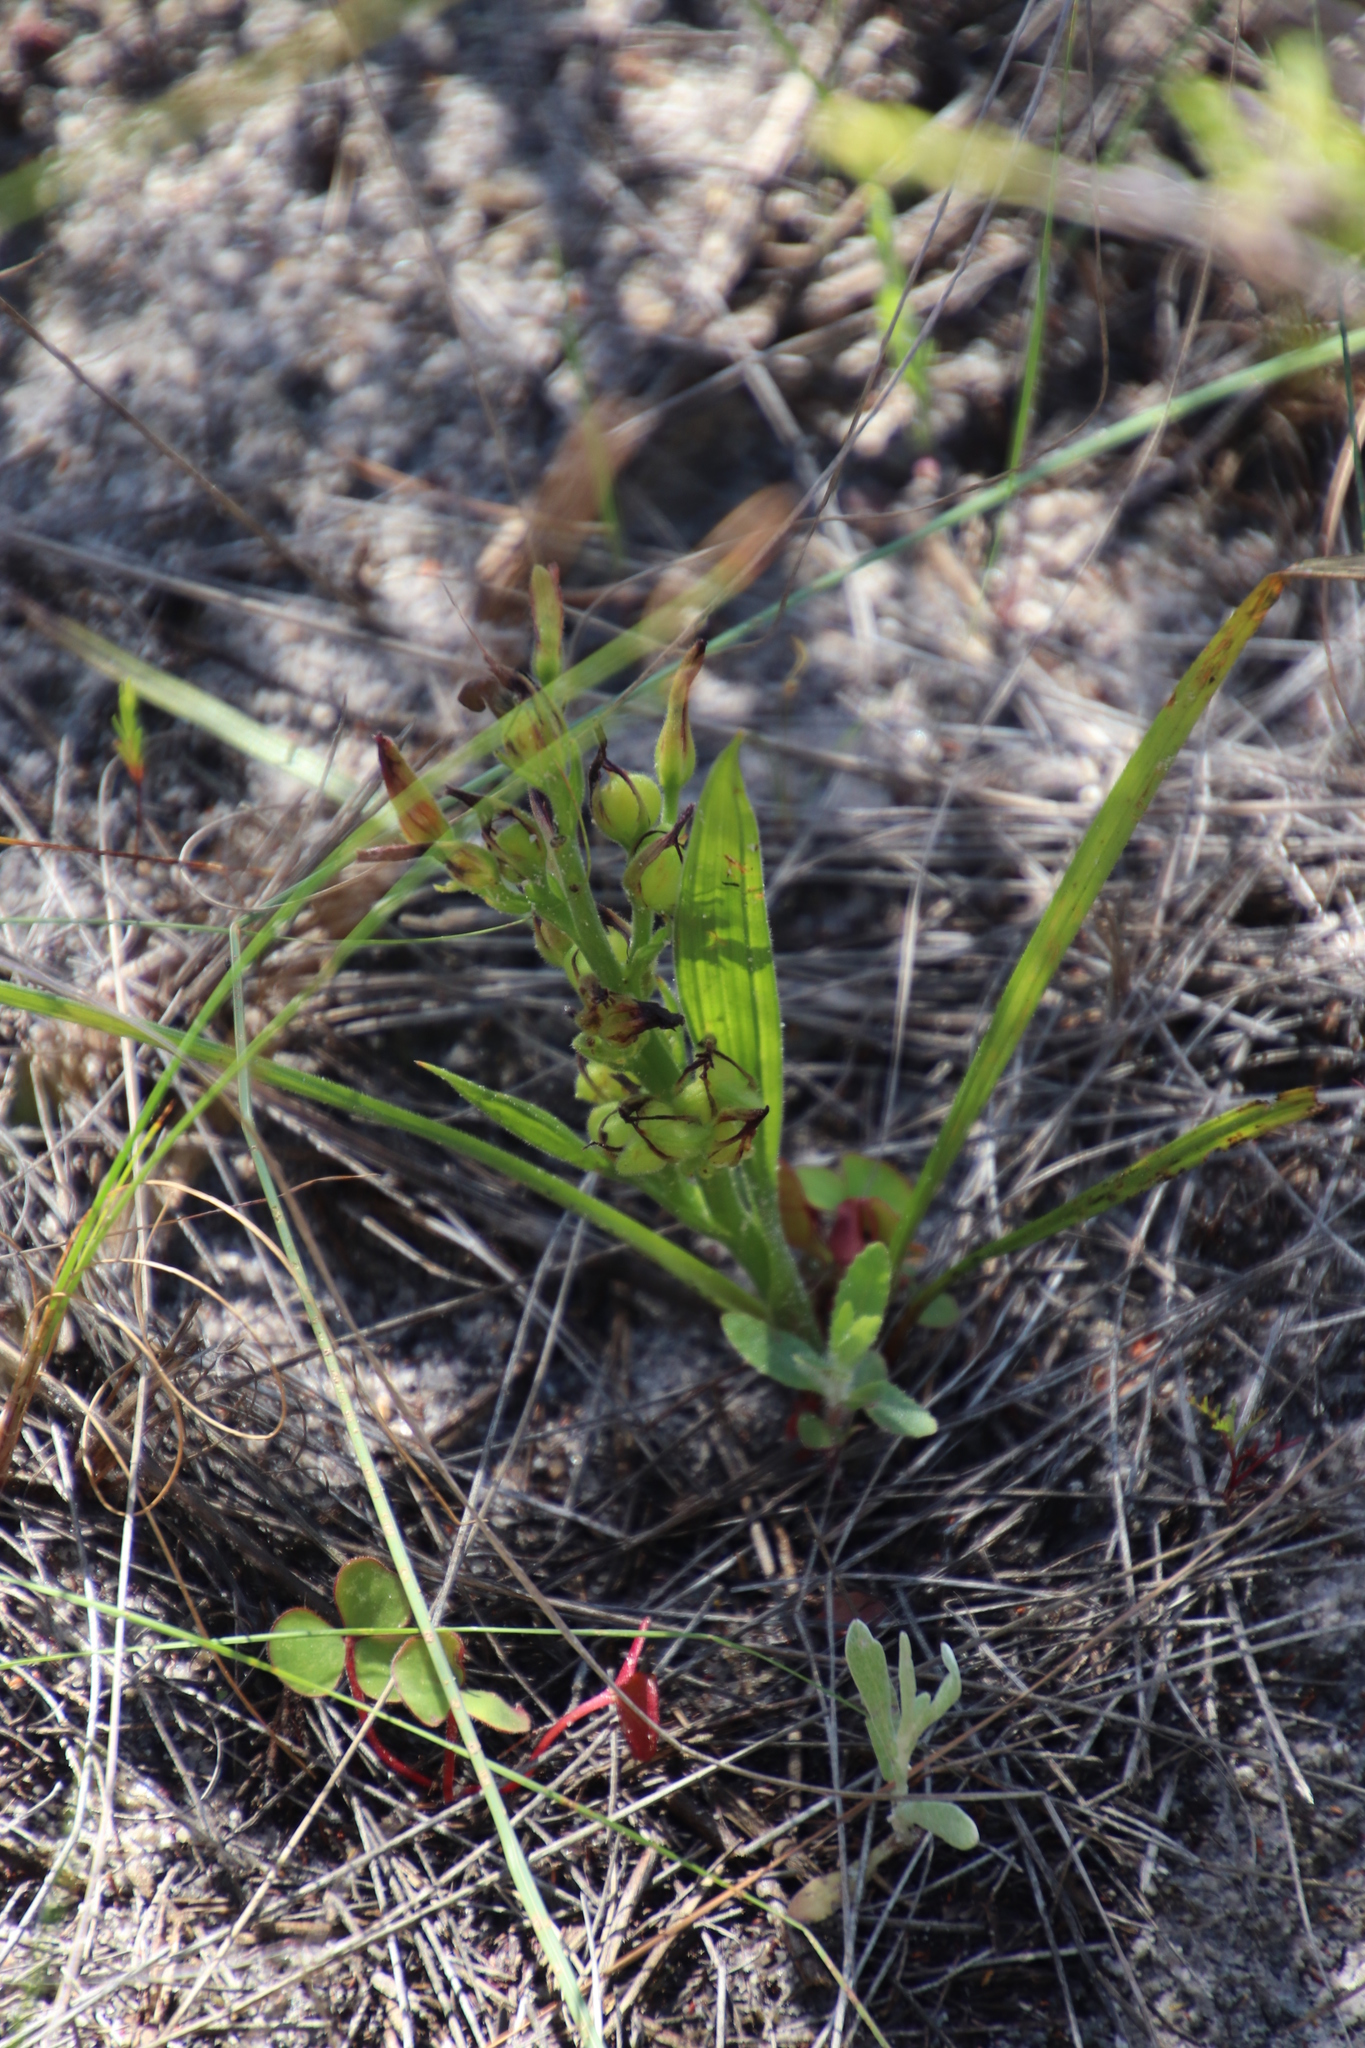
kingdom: Plantae
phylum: Tracheophyta
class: Liliopsida
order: Commelinales
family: Haemodoraceae
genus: Wachendorfia
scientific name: Wachendorfia multiflora
